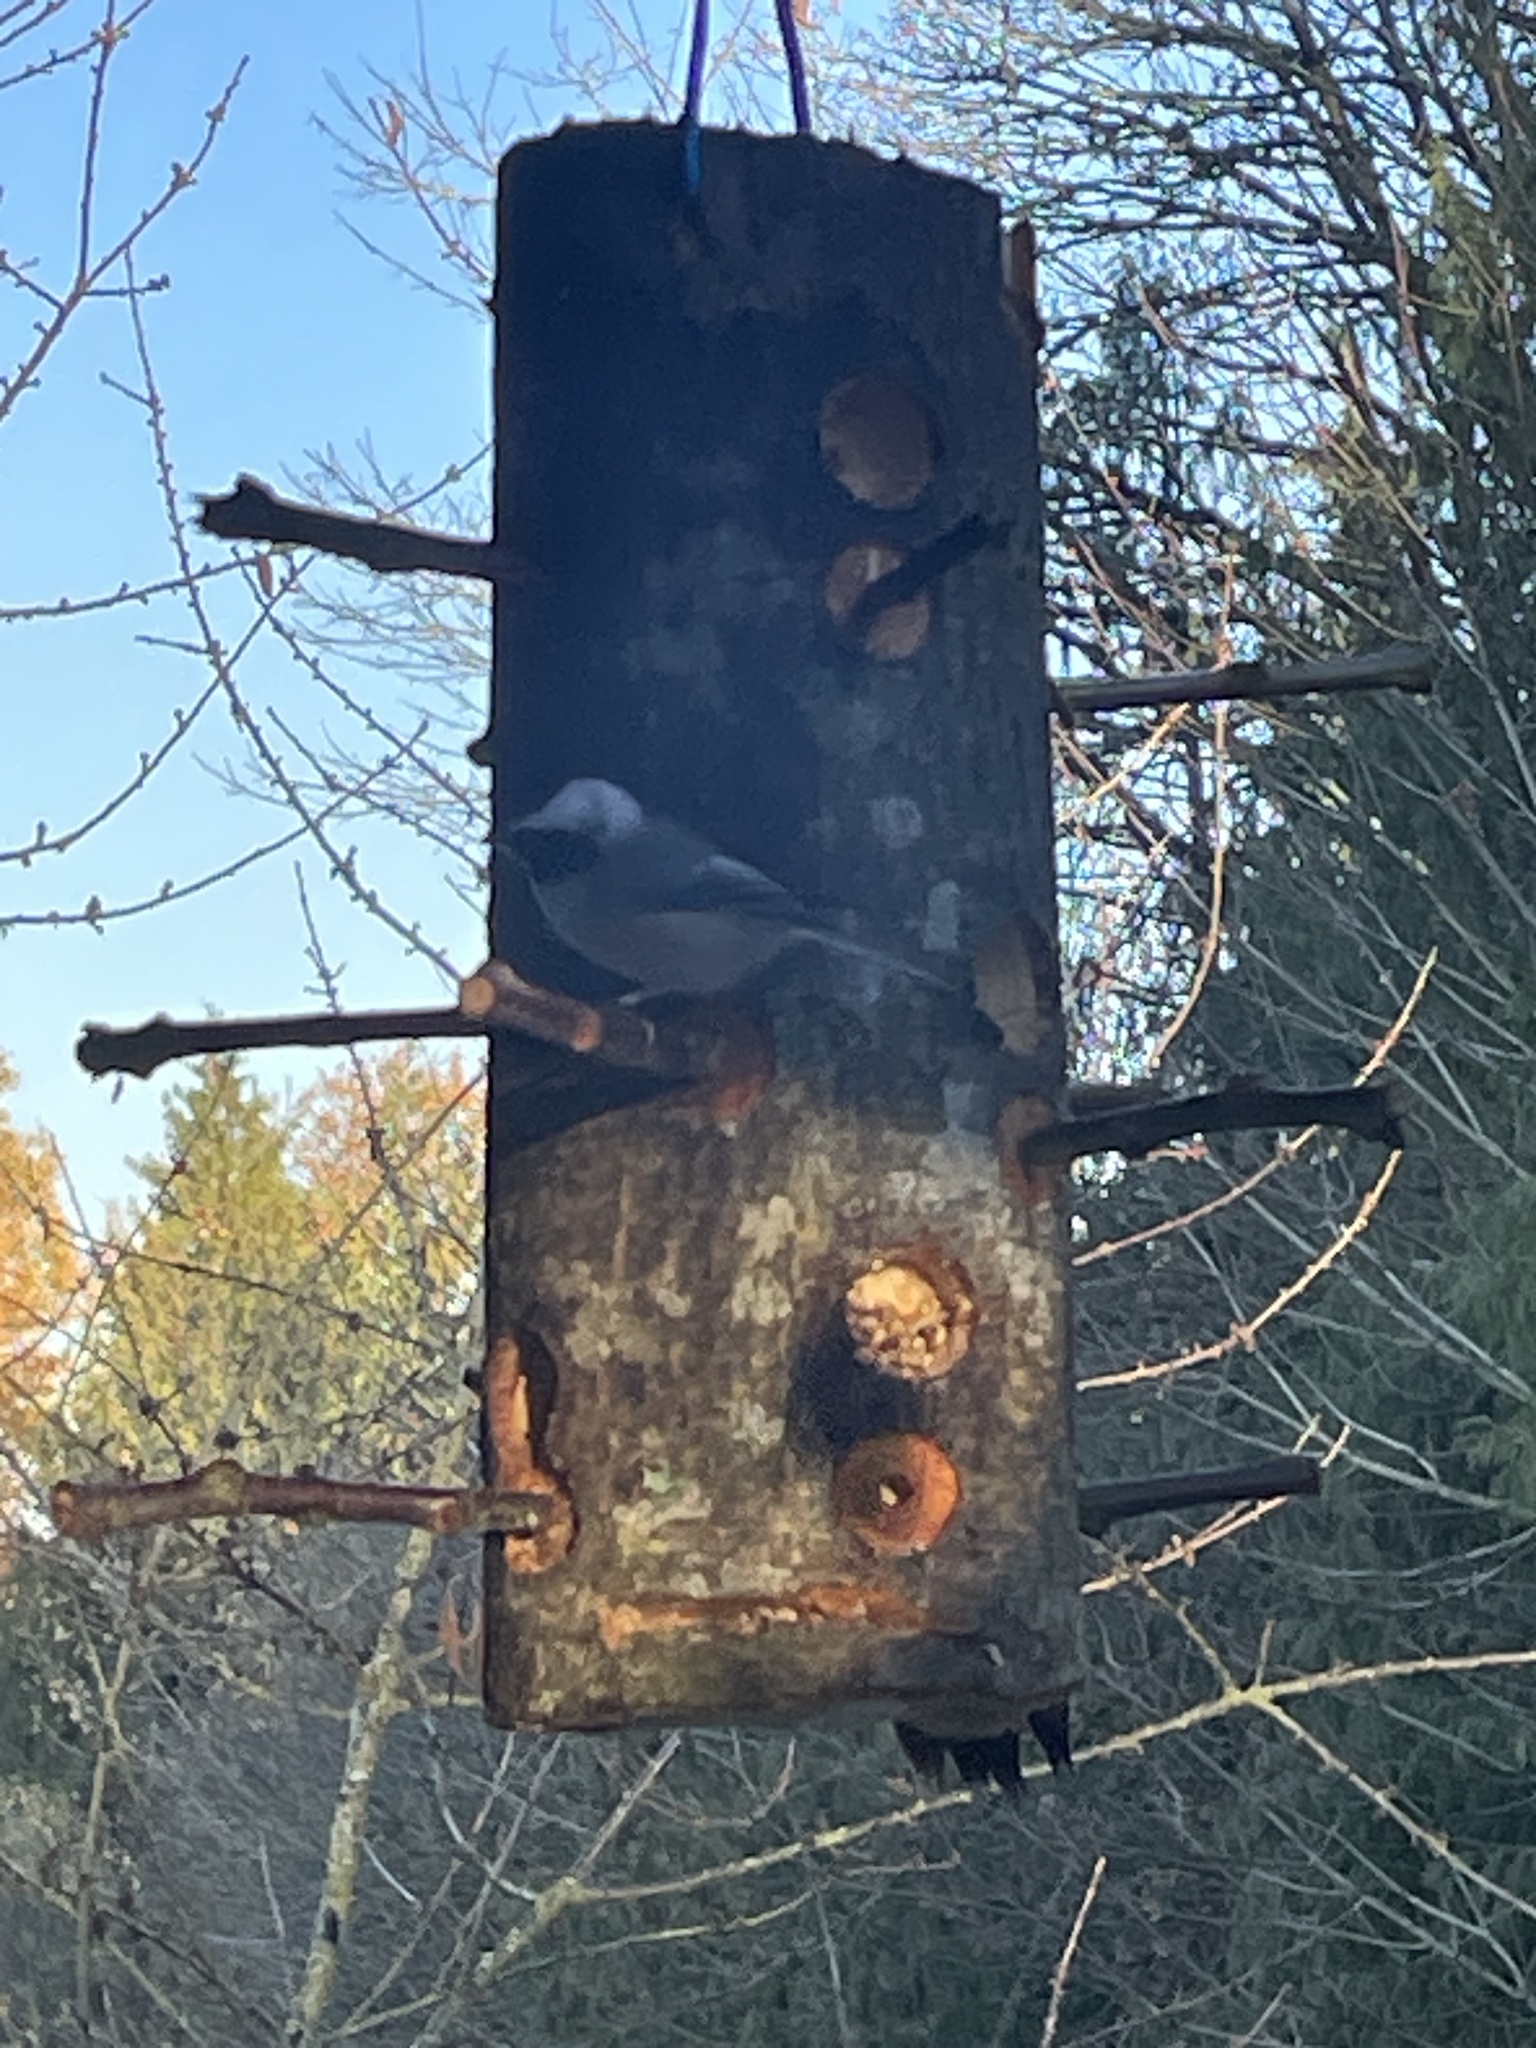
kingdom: Animalia
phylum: Chordata
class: Aves
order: Passeriformes
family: Paridae
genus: Poecile
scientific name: Poecile atricapillus
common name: Black-capped chickadee
